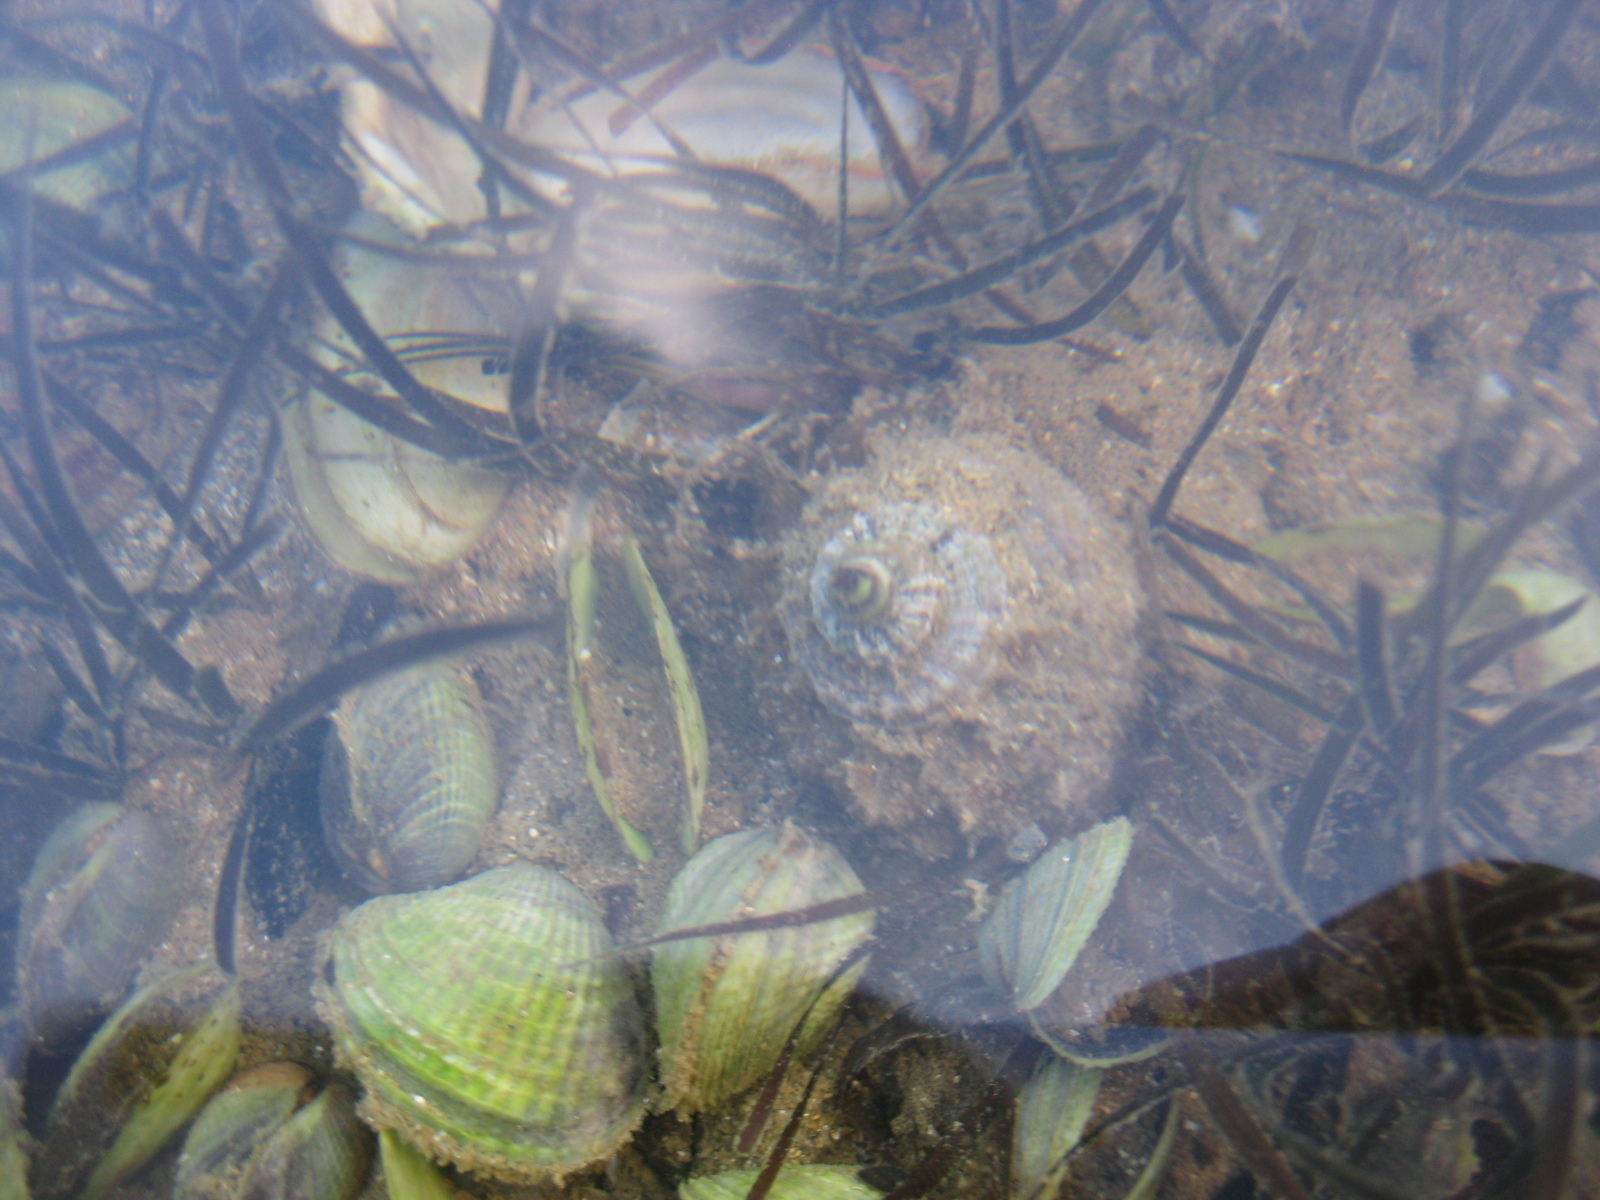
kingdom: Animalia
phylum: Mollusca
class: Gastropoda
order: Littorinimorpha
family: Cymatiidae
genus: Monoplex
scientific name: Monoplex parthenopeus
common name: Giant triton
